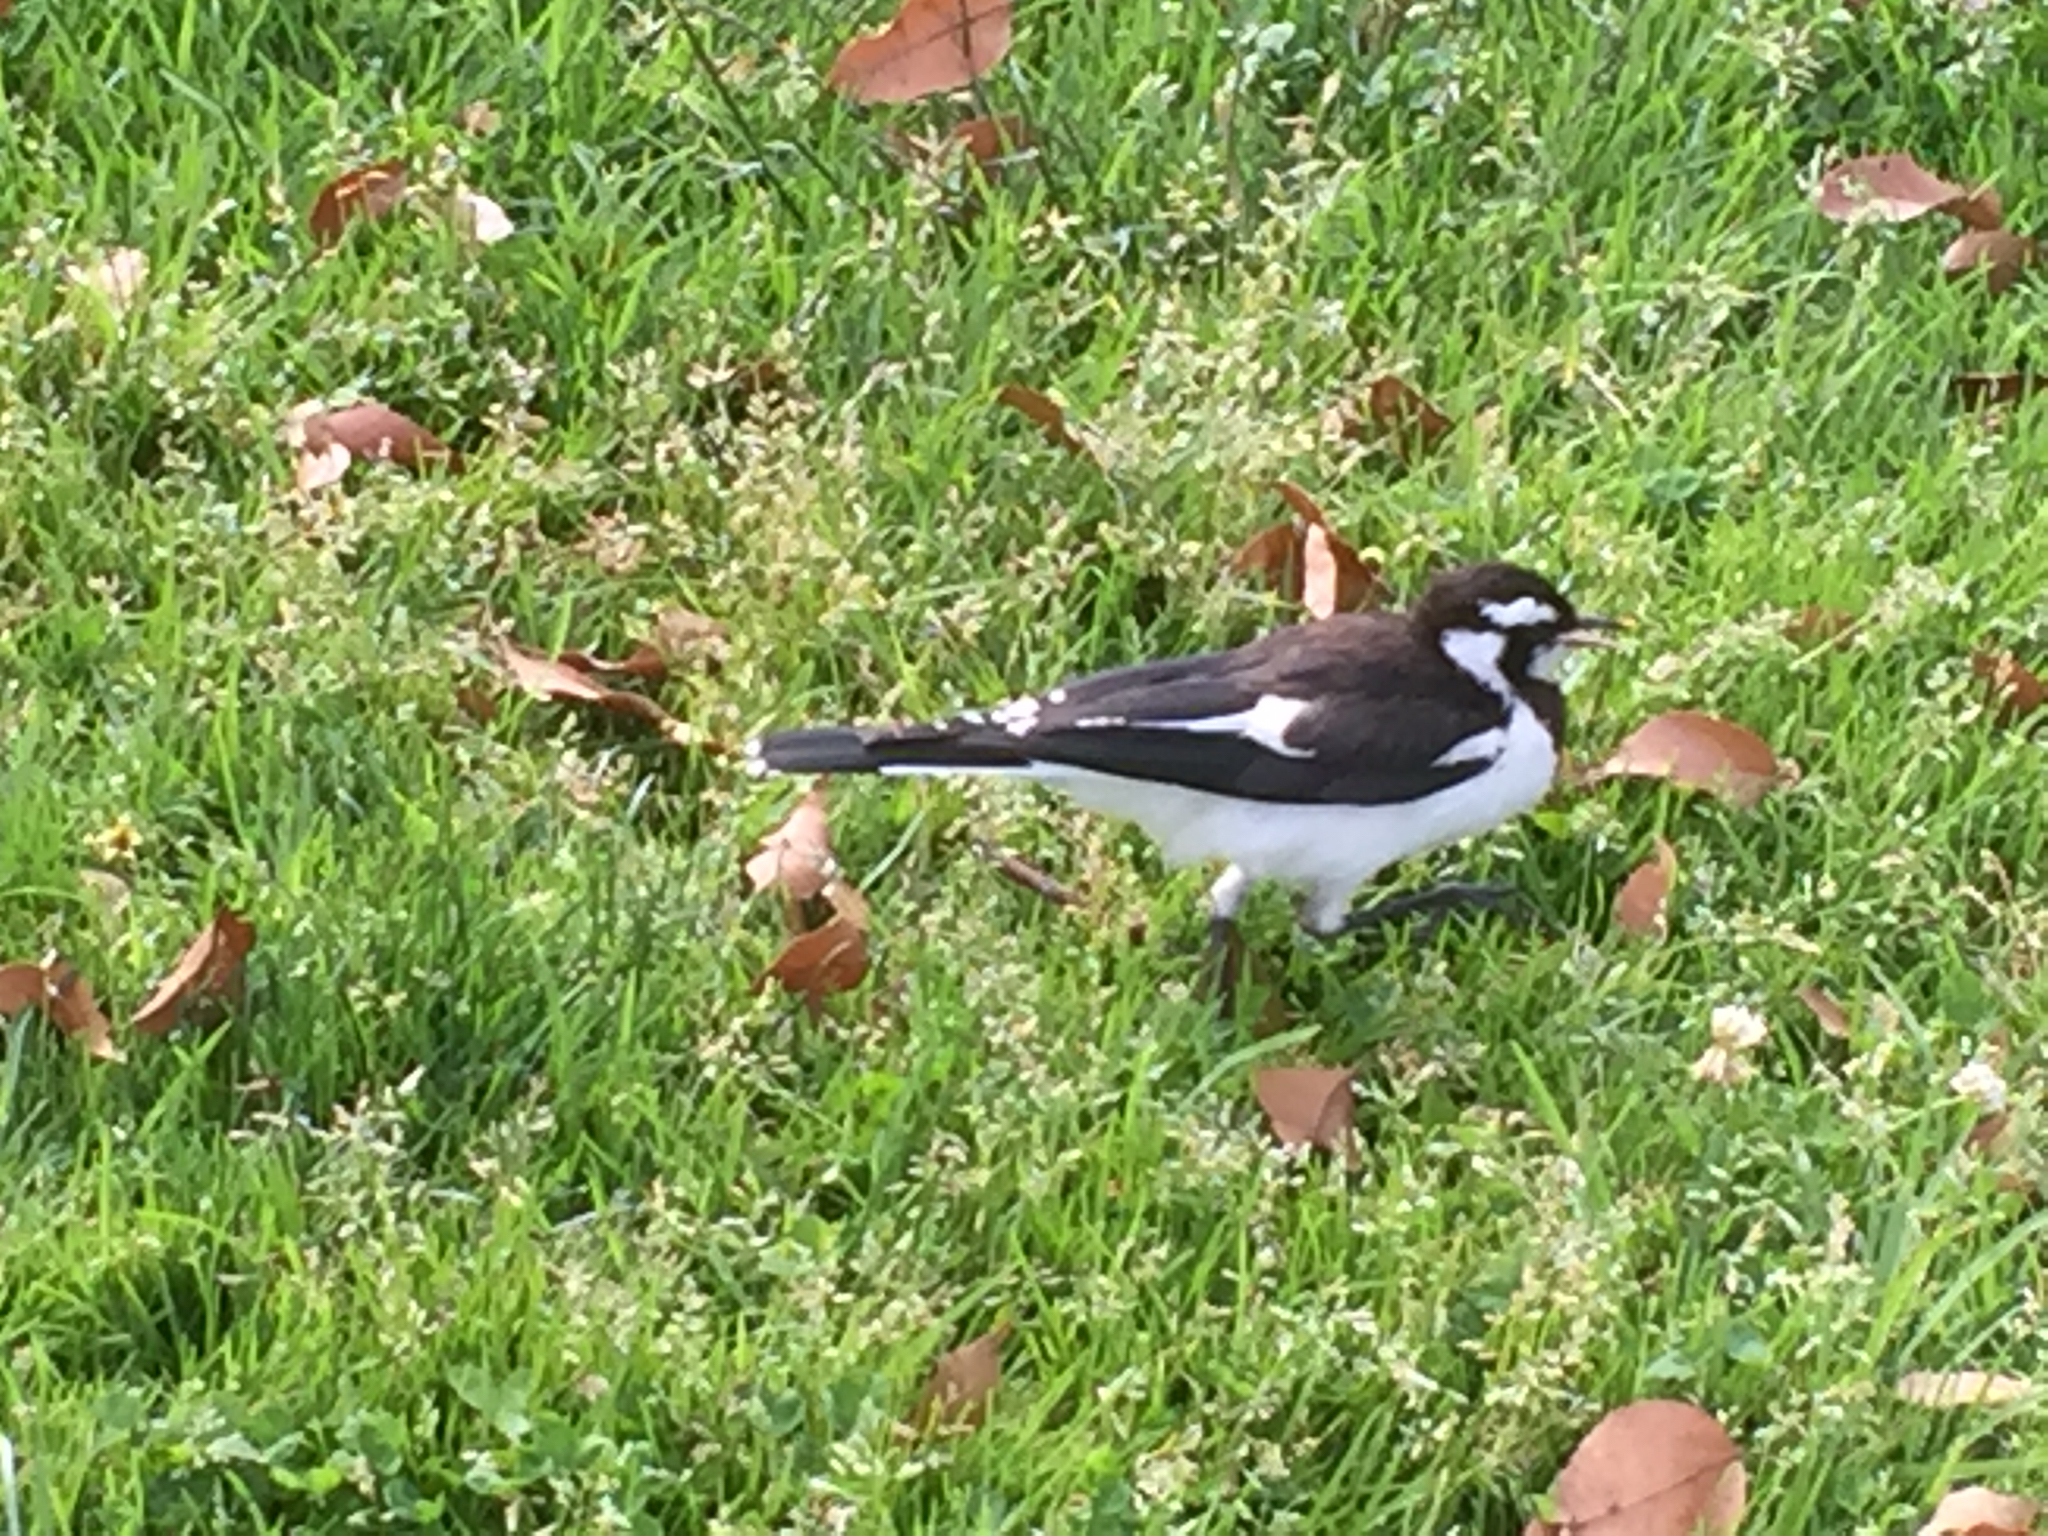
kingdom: Animalia
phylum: Chordata
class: Aves
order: Passeriformes
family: Monarchidae
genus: Grallina
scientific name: Grallina cyanoleuca
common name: Magpie-lark
